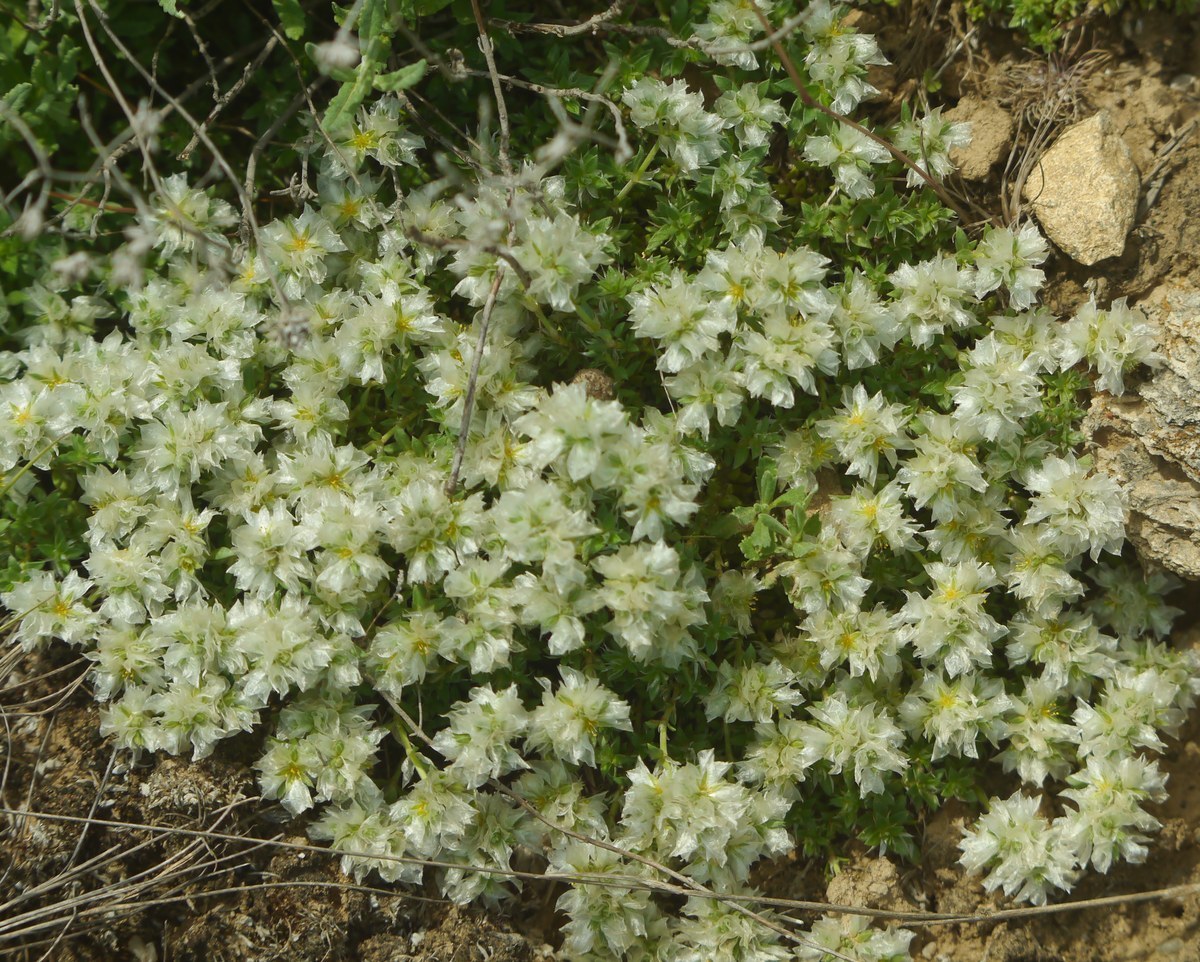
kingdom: Plantae
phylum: Tracheophyta
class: Magnoliopsida
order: Caryophyllales
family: Caryophyllaceae
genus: Paronychia
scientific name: Paronychia cephalotes
